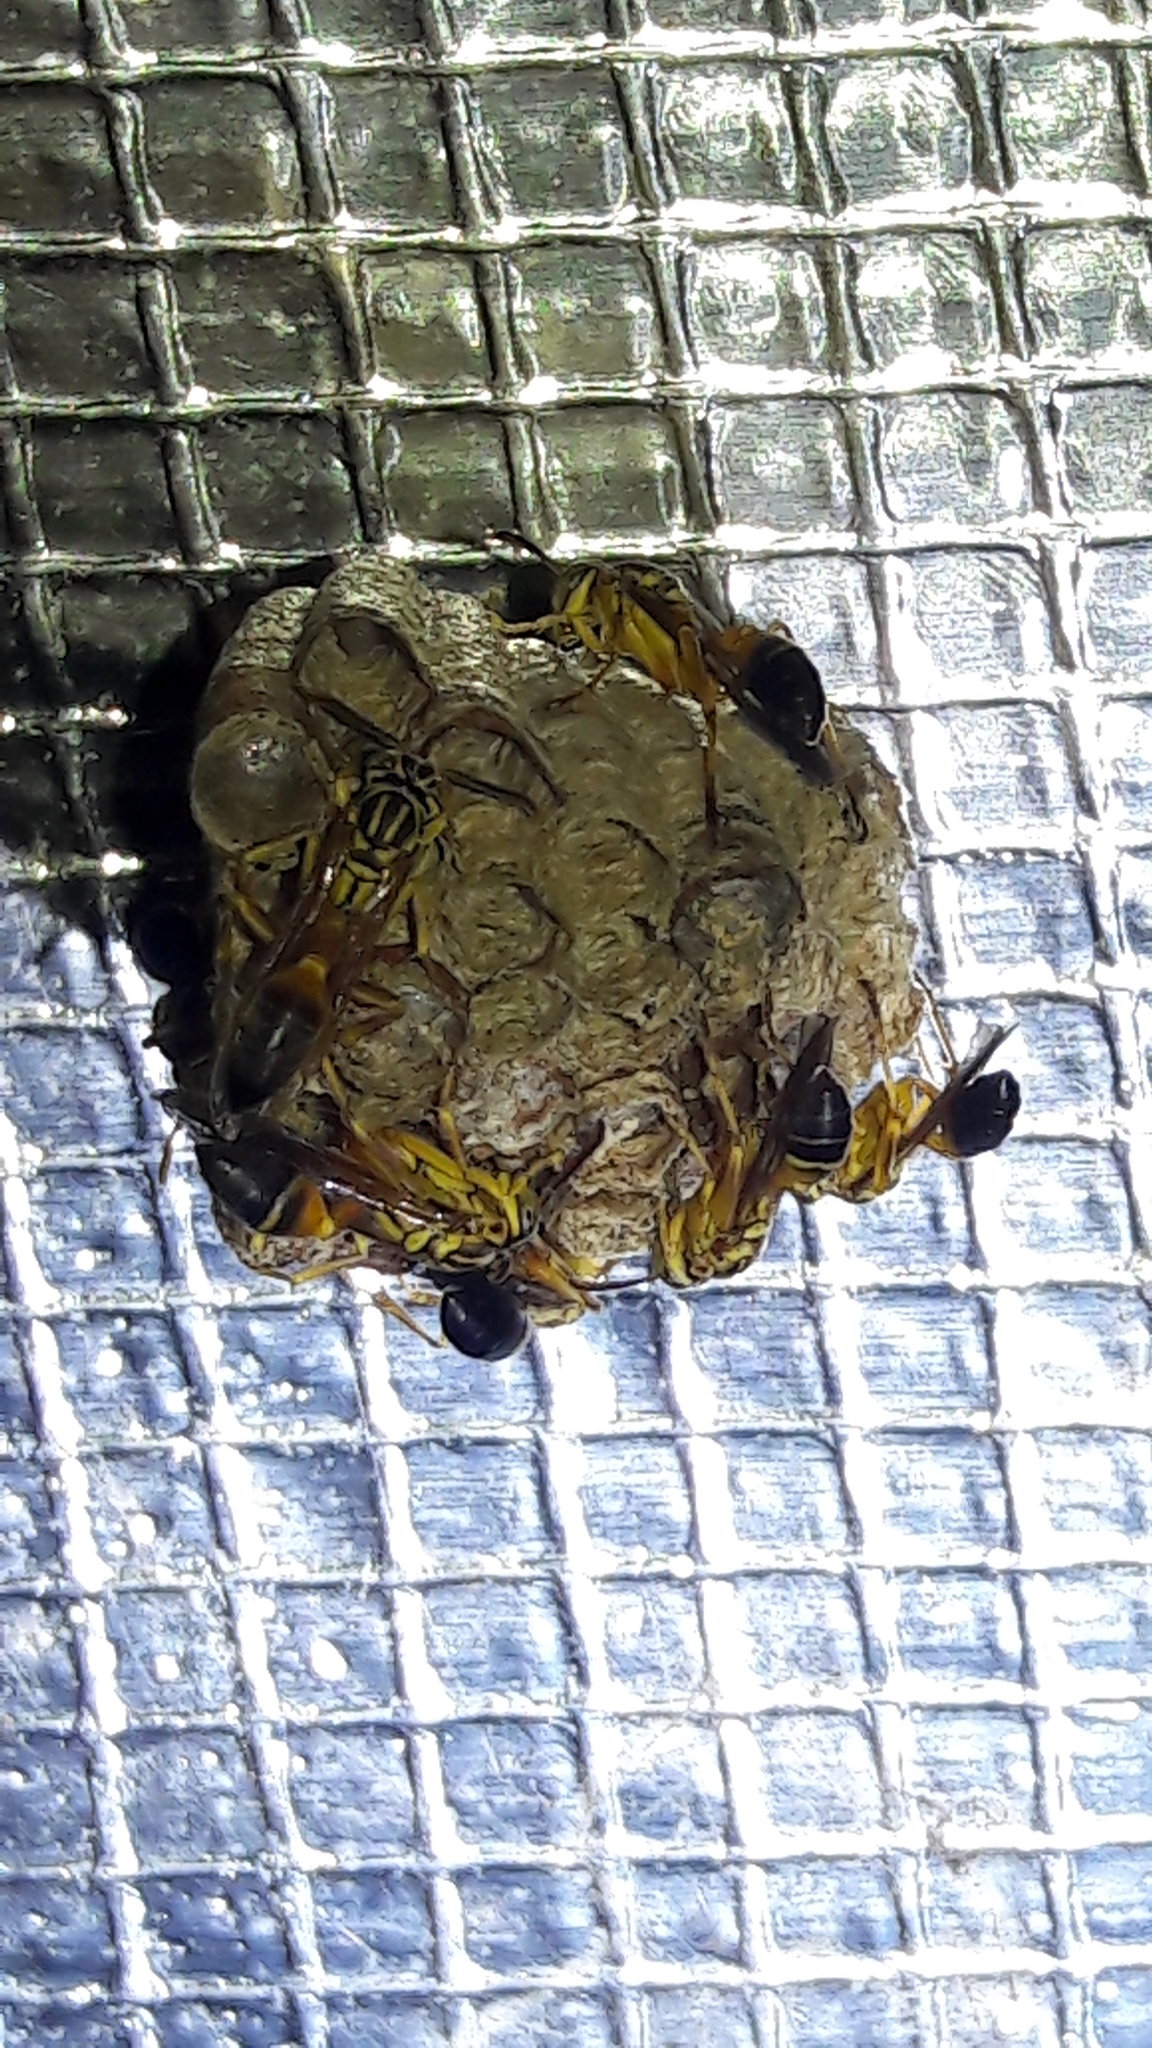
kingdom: Animalia
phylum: Arthropoda
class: Insecta
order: Hymenoptera
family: Vespidae
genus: Mischocyttarus
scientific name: Mischocyttarus cerberus
